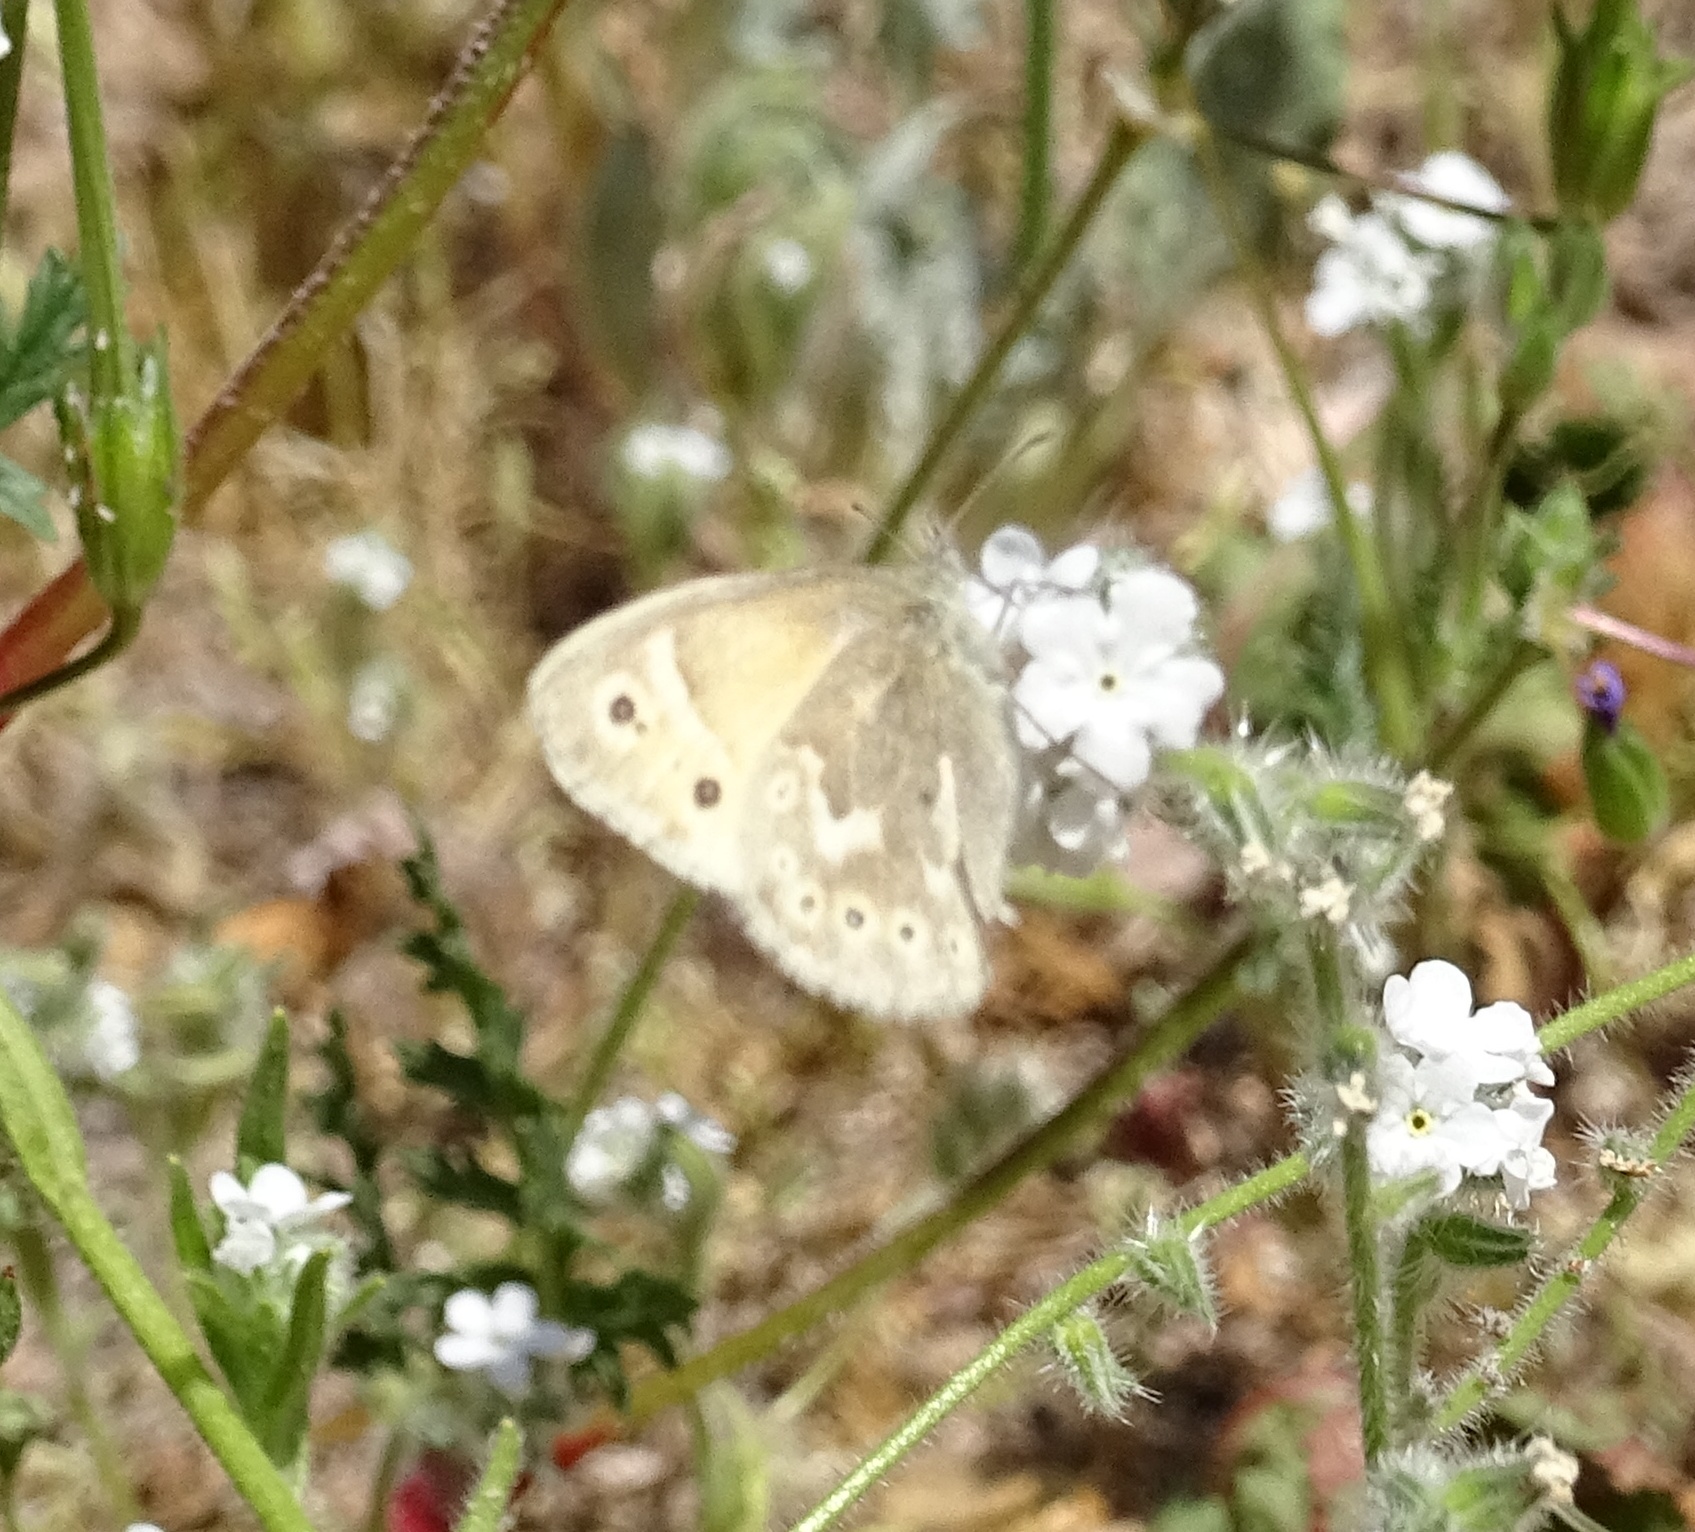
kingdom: Animalia
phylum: Arthropoda
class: Insecta
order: Lepidoptera
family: Nymphalidae
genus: Coenonympha
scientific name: Coenonympha california
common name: Common ringlet
